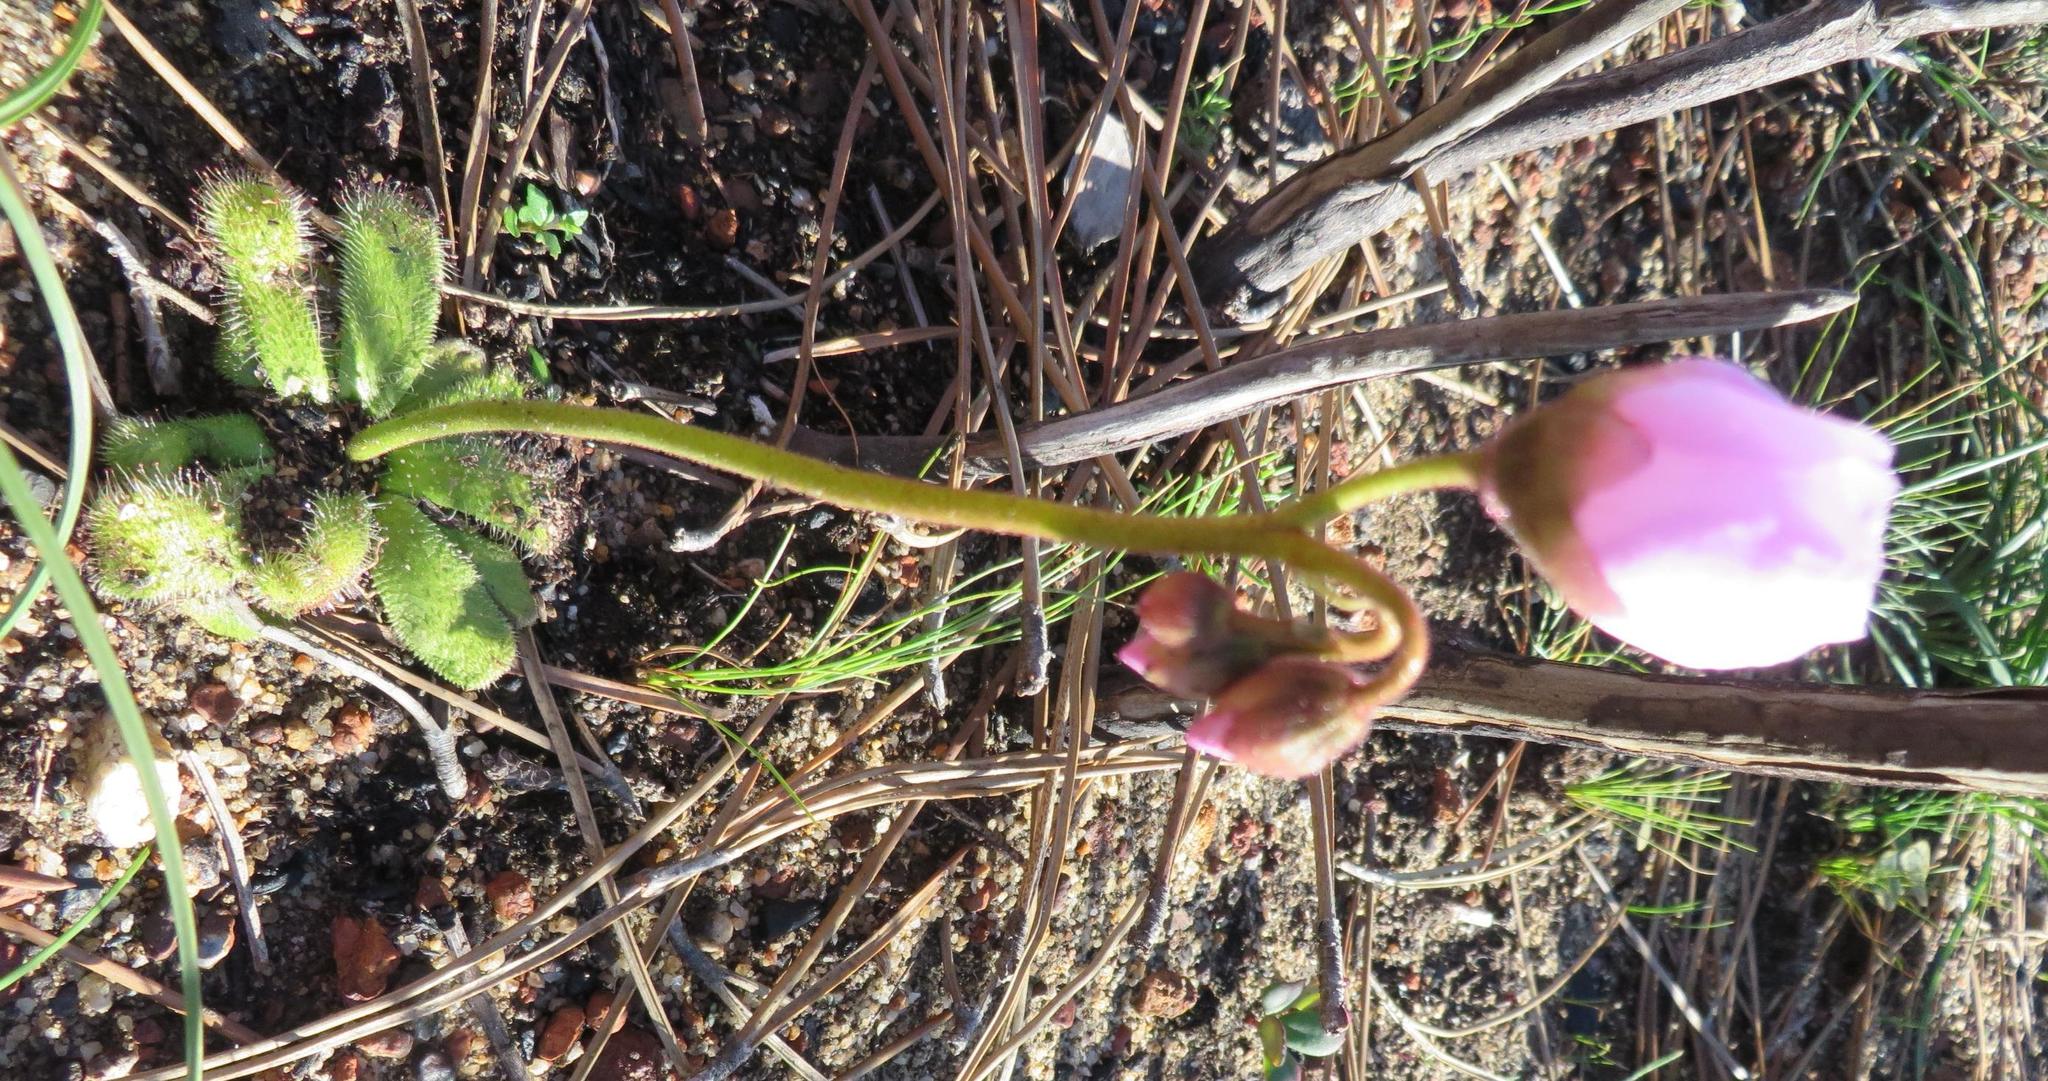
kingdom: Plantae
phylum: Tracheophyta
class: Magnoliopsida
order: Caryophyllales
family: Droseraceae
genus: Drosera
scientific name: Drosera pauciflora
